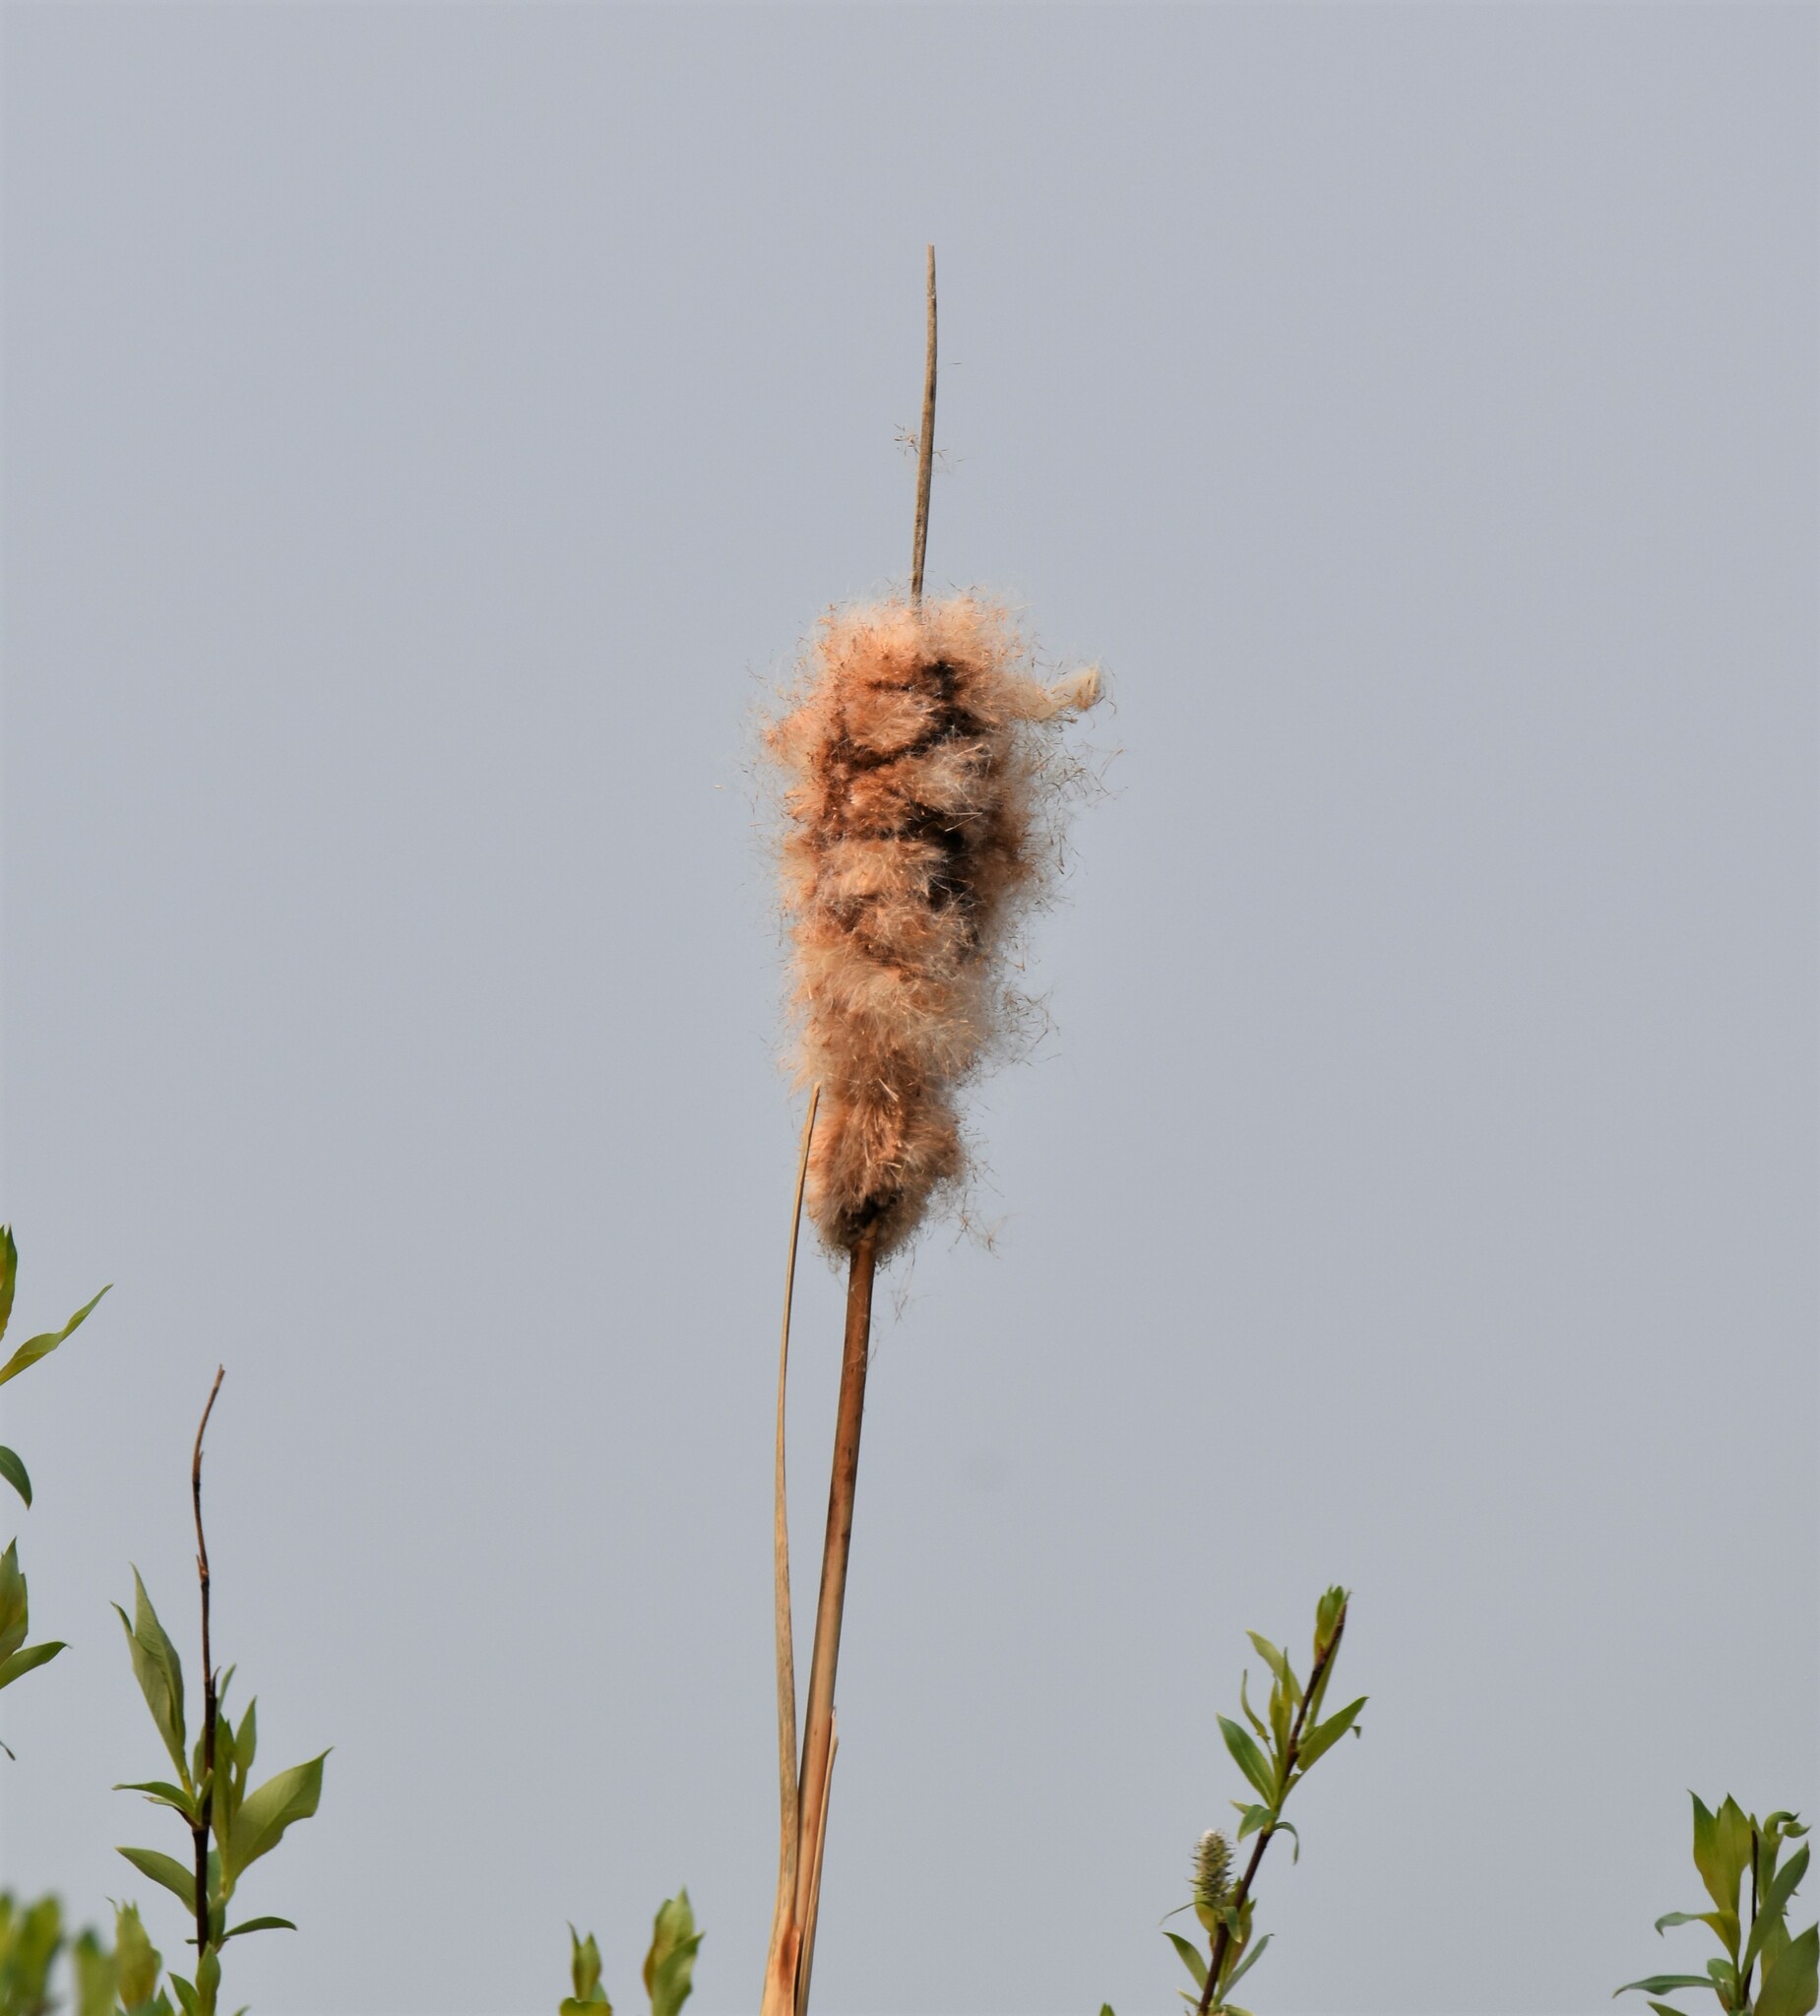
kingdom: Plantae
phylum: Tracheophyta
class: Liliopsida
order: Poales
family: Typhaceae
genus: Typha
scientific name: Typha latifolia
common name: Broadleaf cattail
